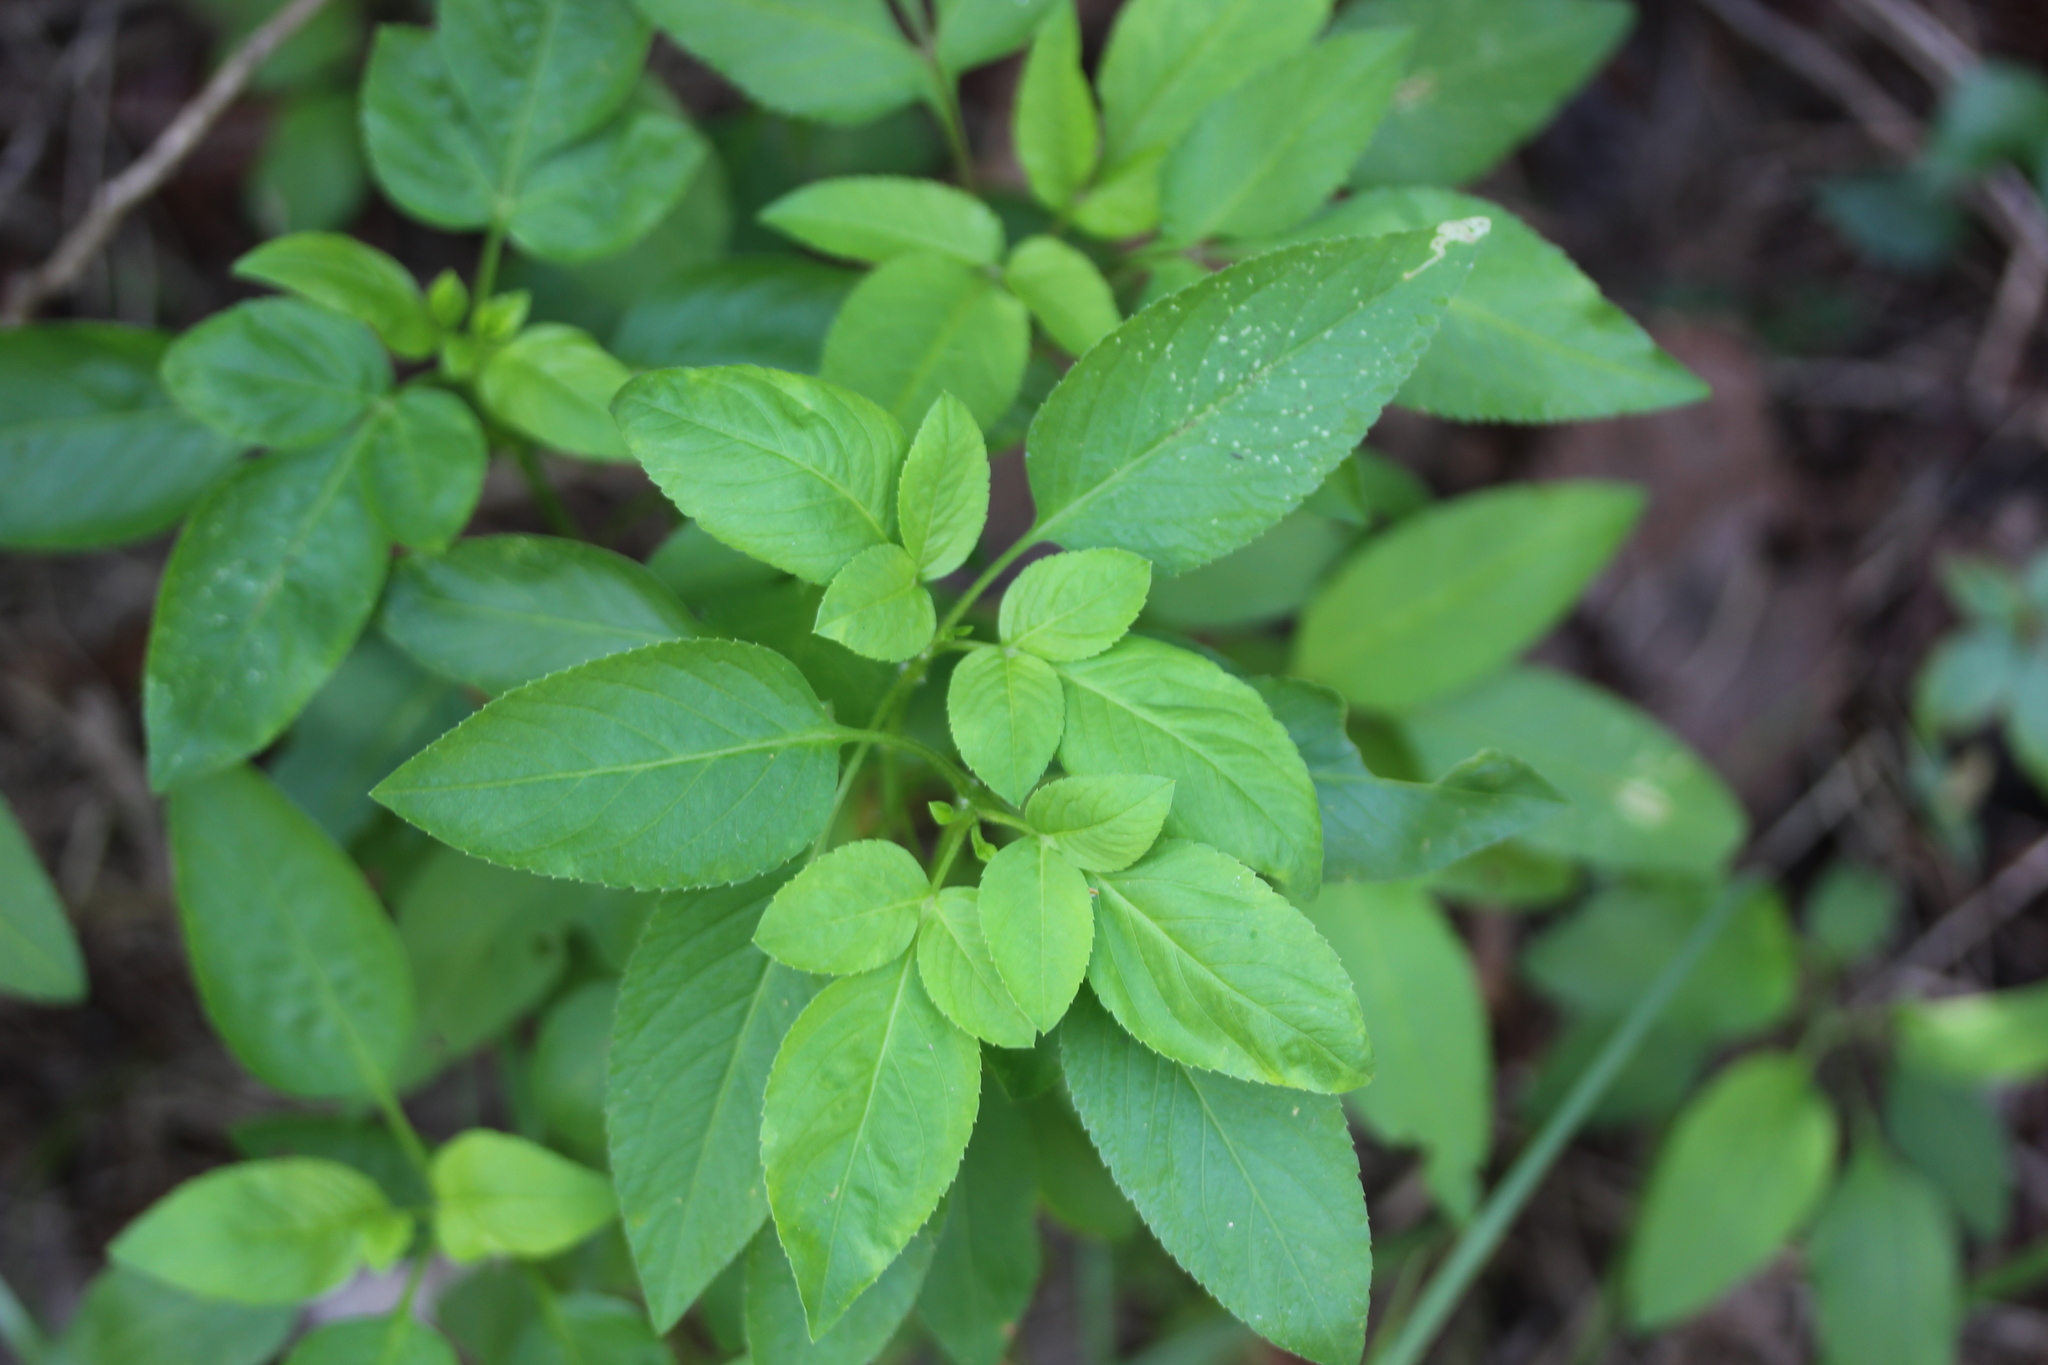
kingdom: Plantae
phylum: Tracheophyta
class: Magnoliopsida
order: Asterales
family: Asteraceae
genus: Bidens
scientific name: Bidens alba
